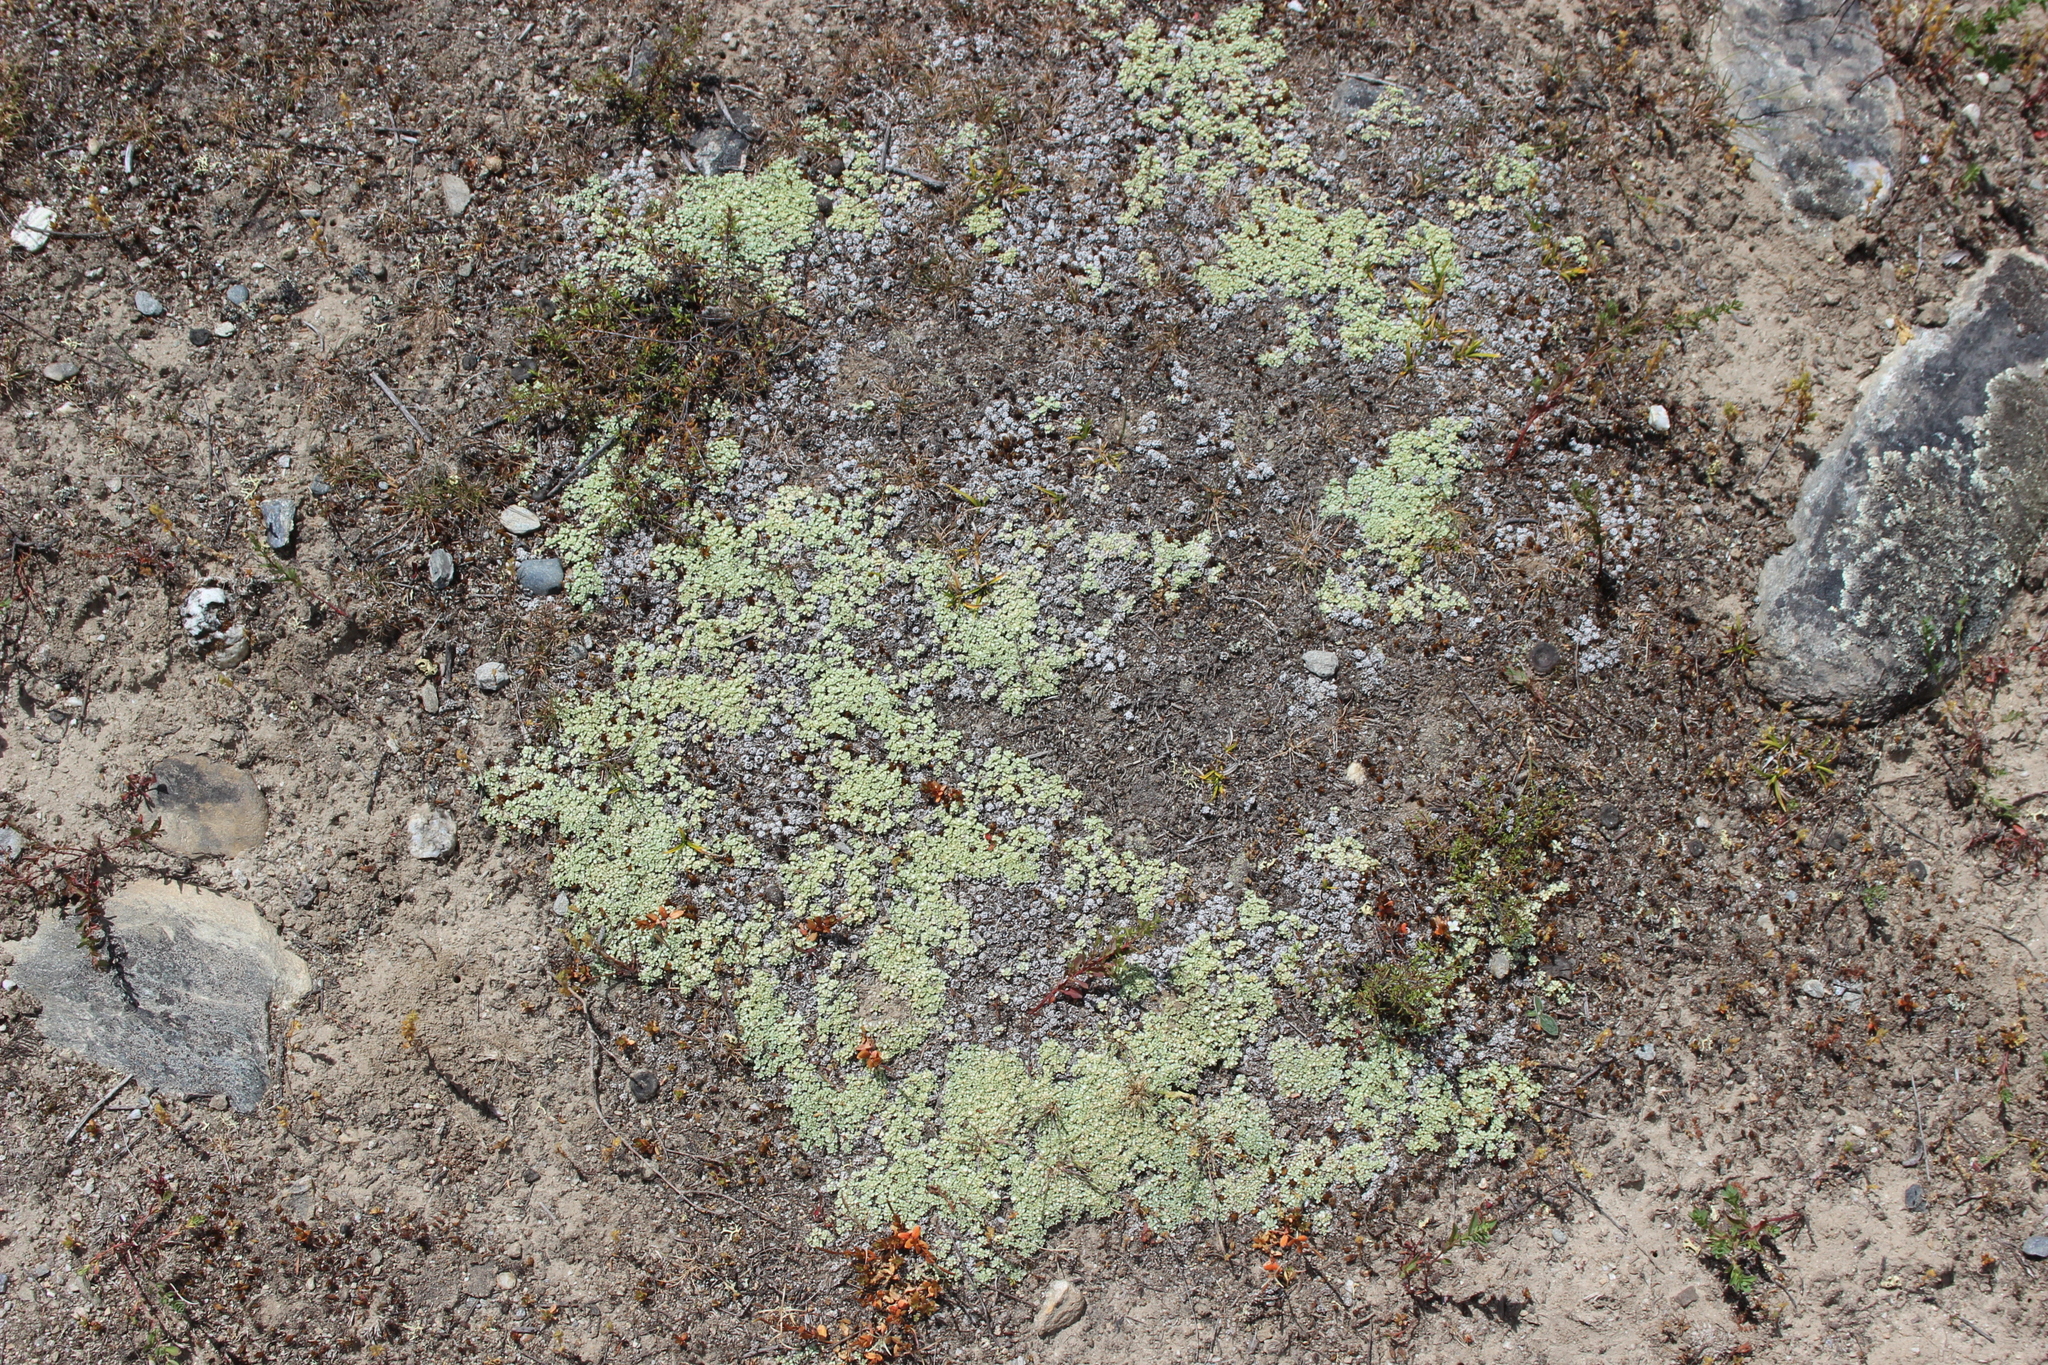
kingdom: Plantae
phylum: Tracheophyta
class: Magnoliopsida
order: Asterales
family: Asteraceae
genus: Raoulia
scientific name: Raoulia parkii
